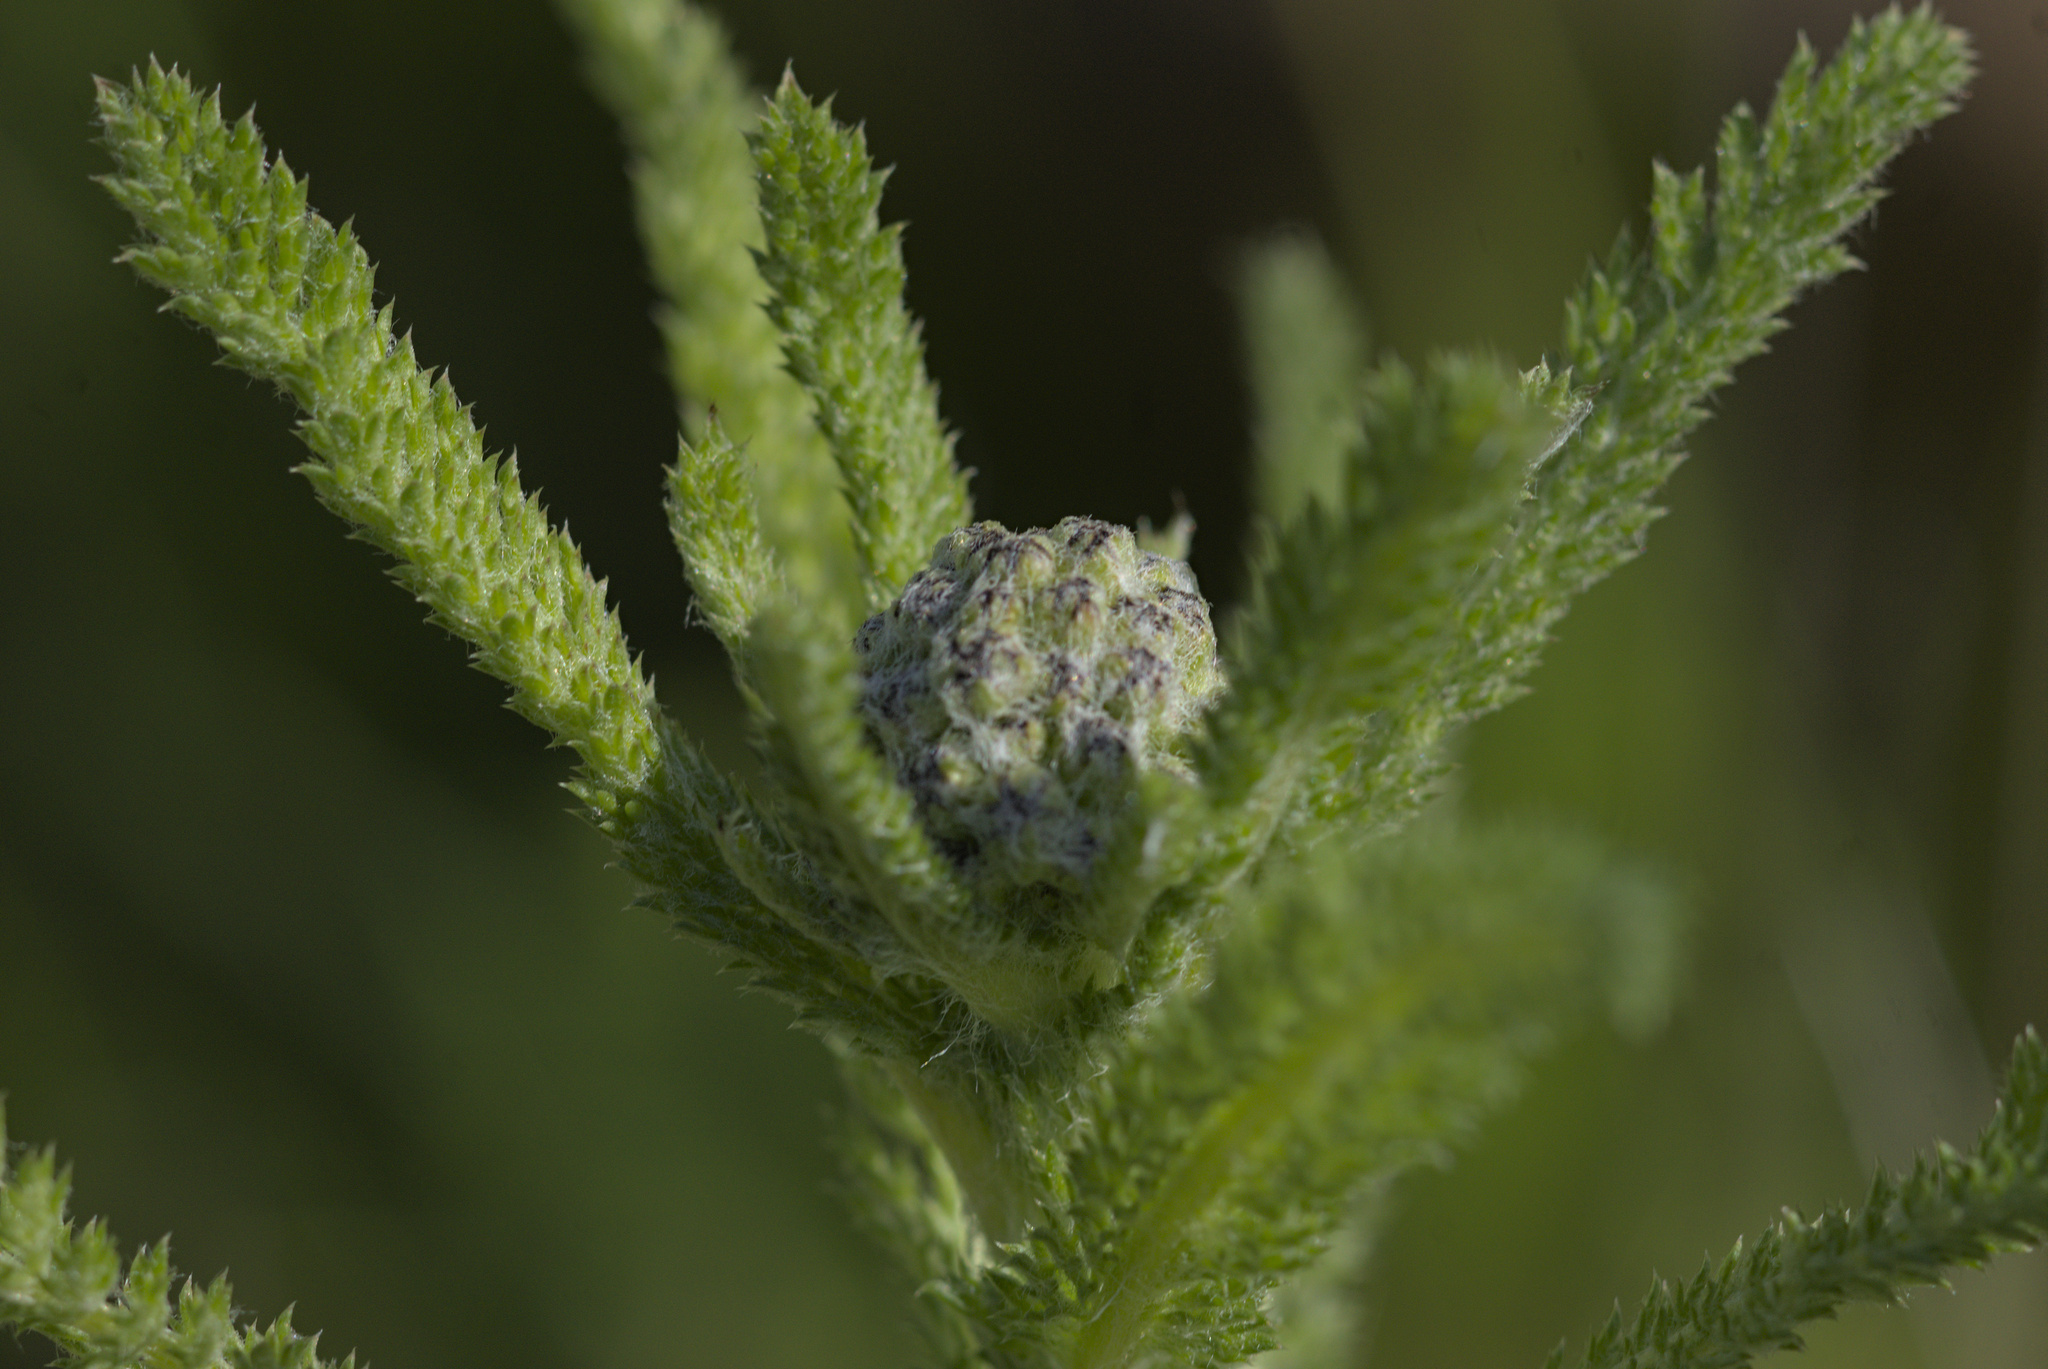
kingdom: Plantae
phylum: Tracheophyta
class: Magnoliopsida
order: Asterales
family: Asteraceae
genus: Achillea
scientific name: Achillea millefolium
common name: Yarrow
